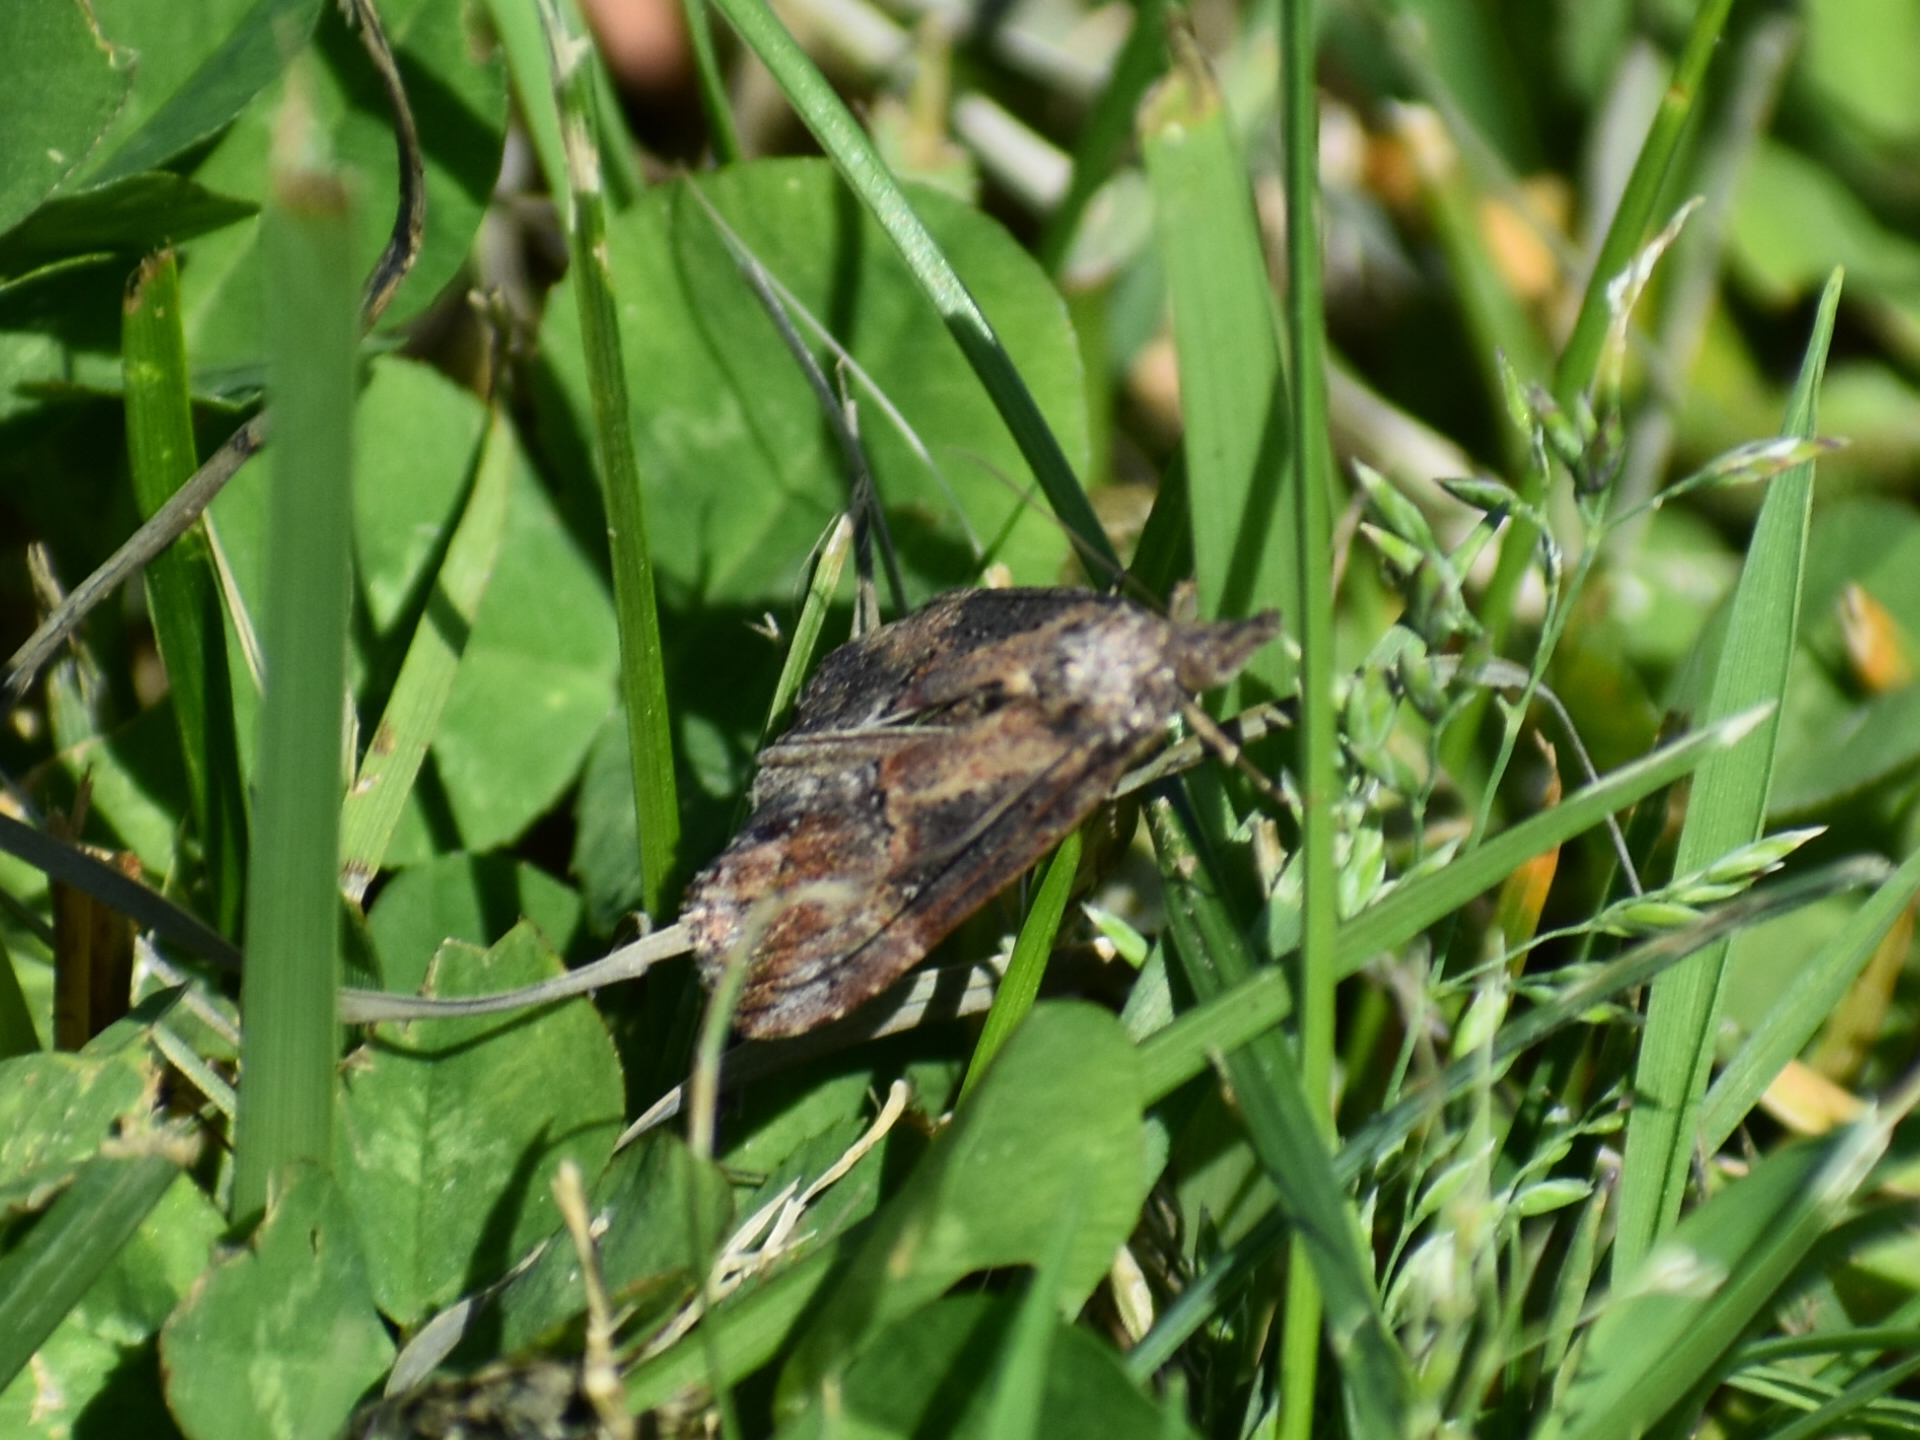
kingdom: Animalia
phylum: Arthropoda
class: Insecta
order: Lepidoptera
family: Erebidae
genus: Hypena
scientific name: Hypena scabra
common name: Green cloverworm
